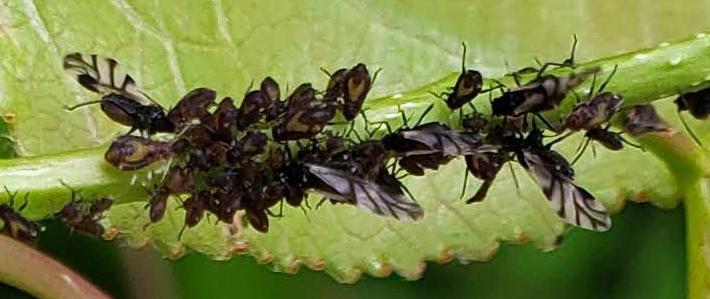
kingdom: Animalia
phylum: Arthropoda
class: Insecta
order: Hemiptera
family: Aphididae
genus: Chaitophorus
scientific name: Chaitophorus populicola
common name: Smokywinged poplar aphid
